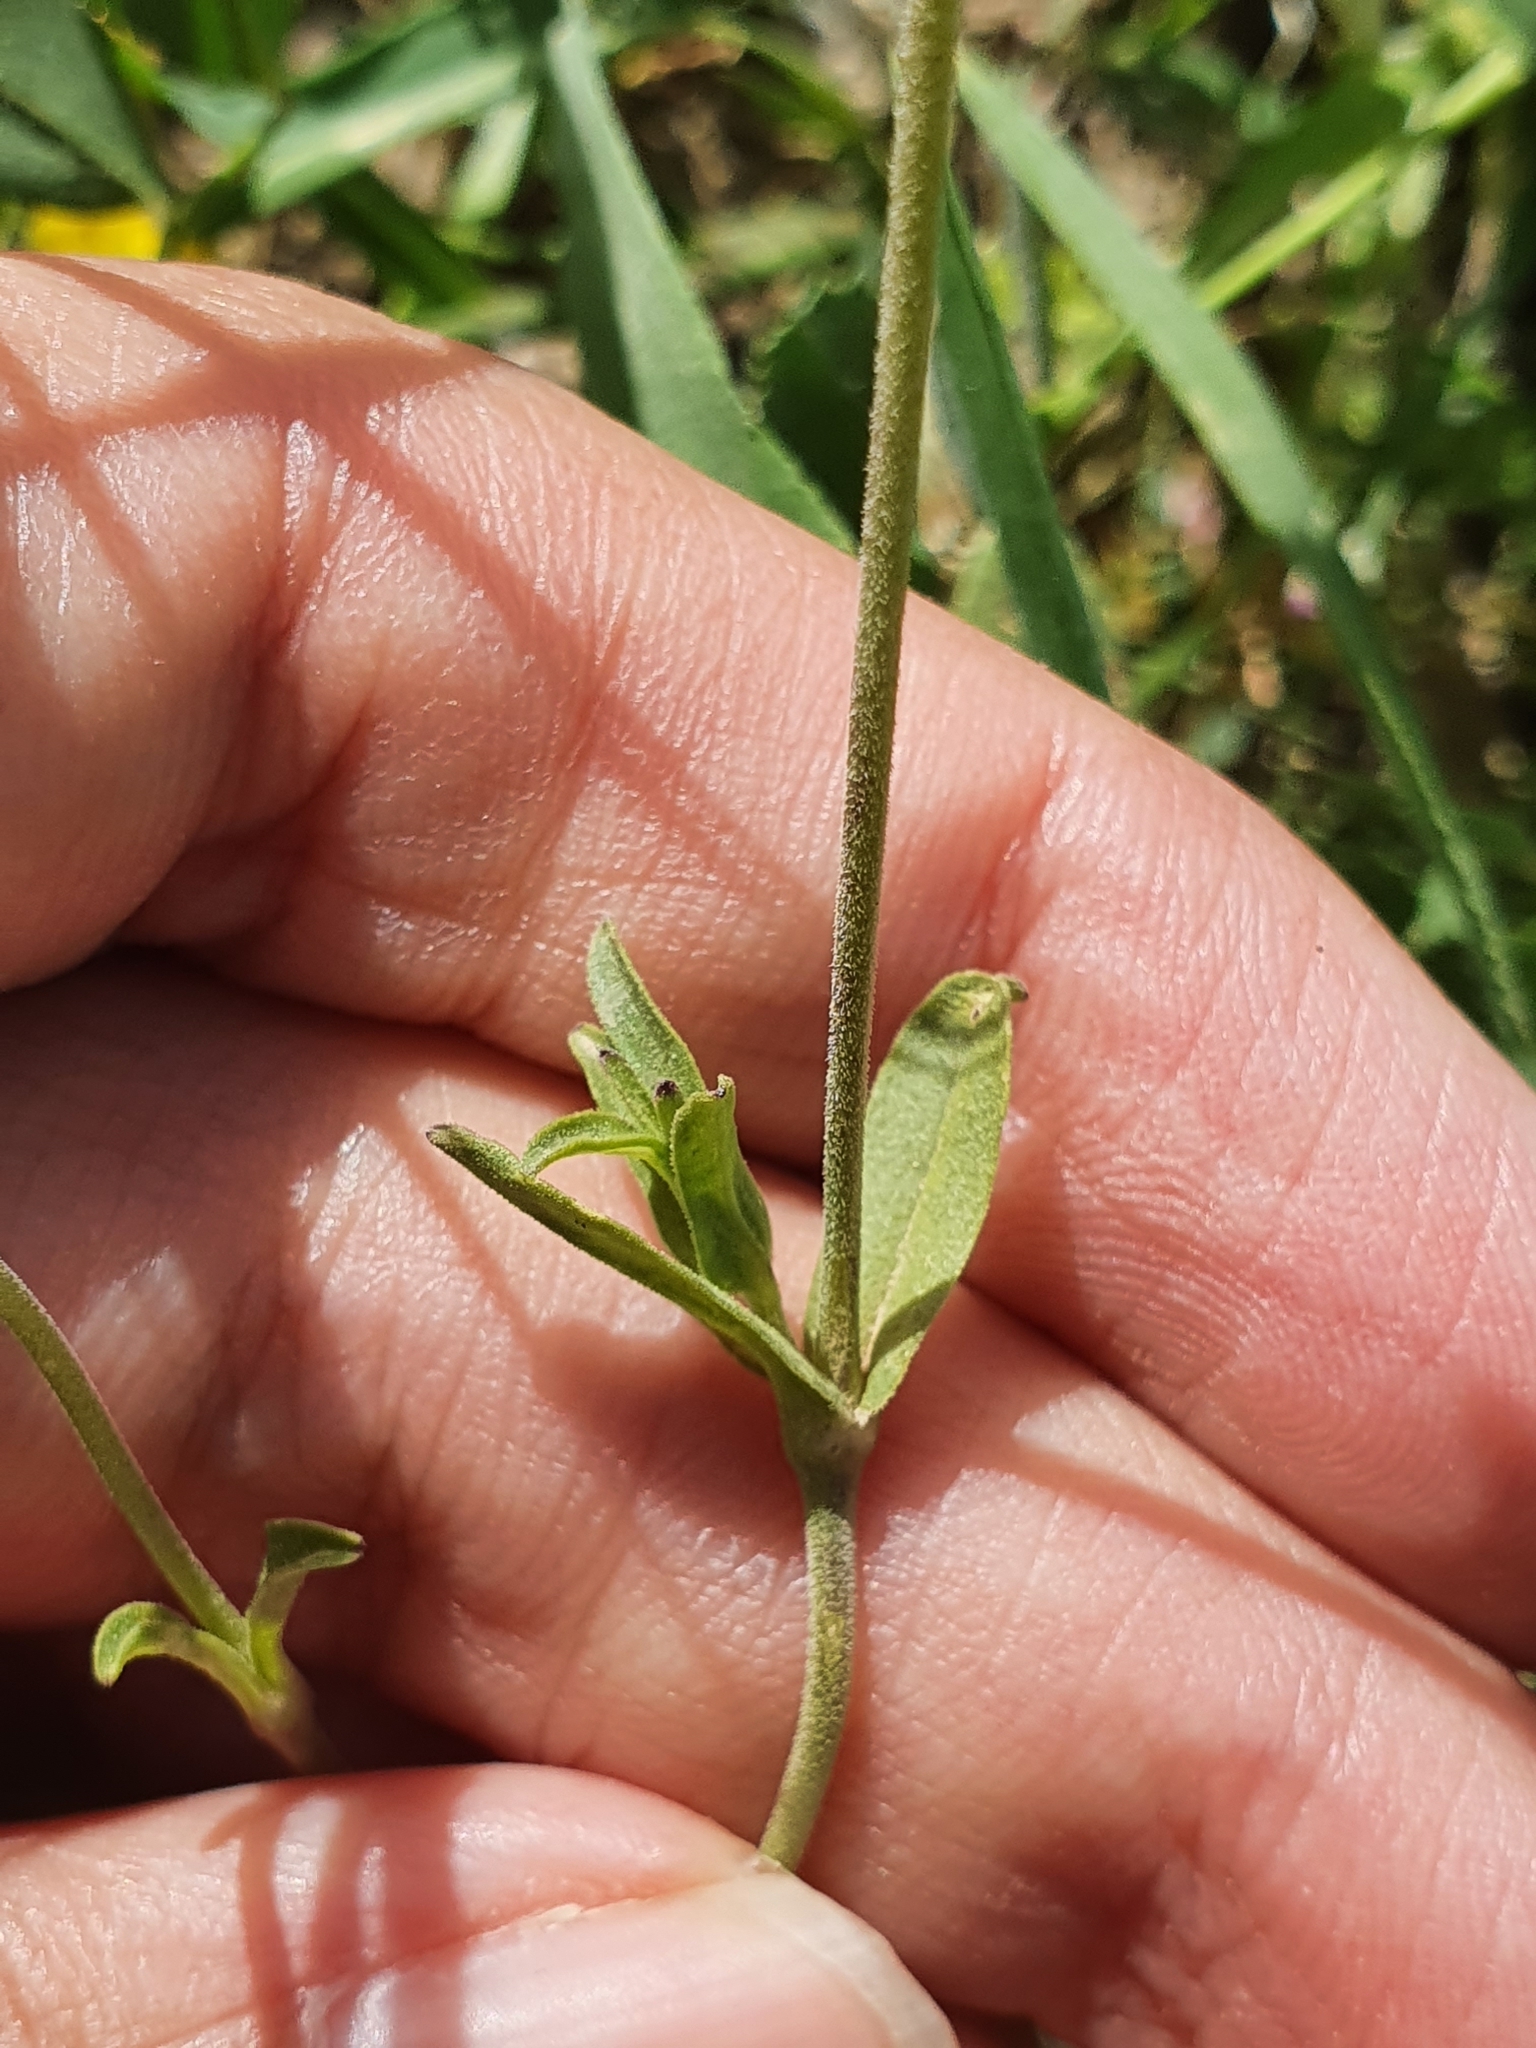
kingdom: Plantae
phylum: Tracheophyta
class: Magnoliopsida
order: Caryophyllales
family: Caryophyllaceae
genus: Silene
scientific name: Silene turbinata
